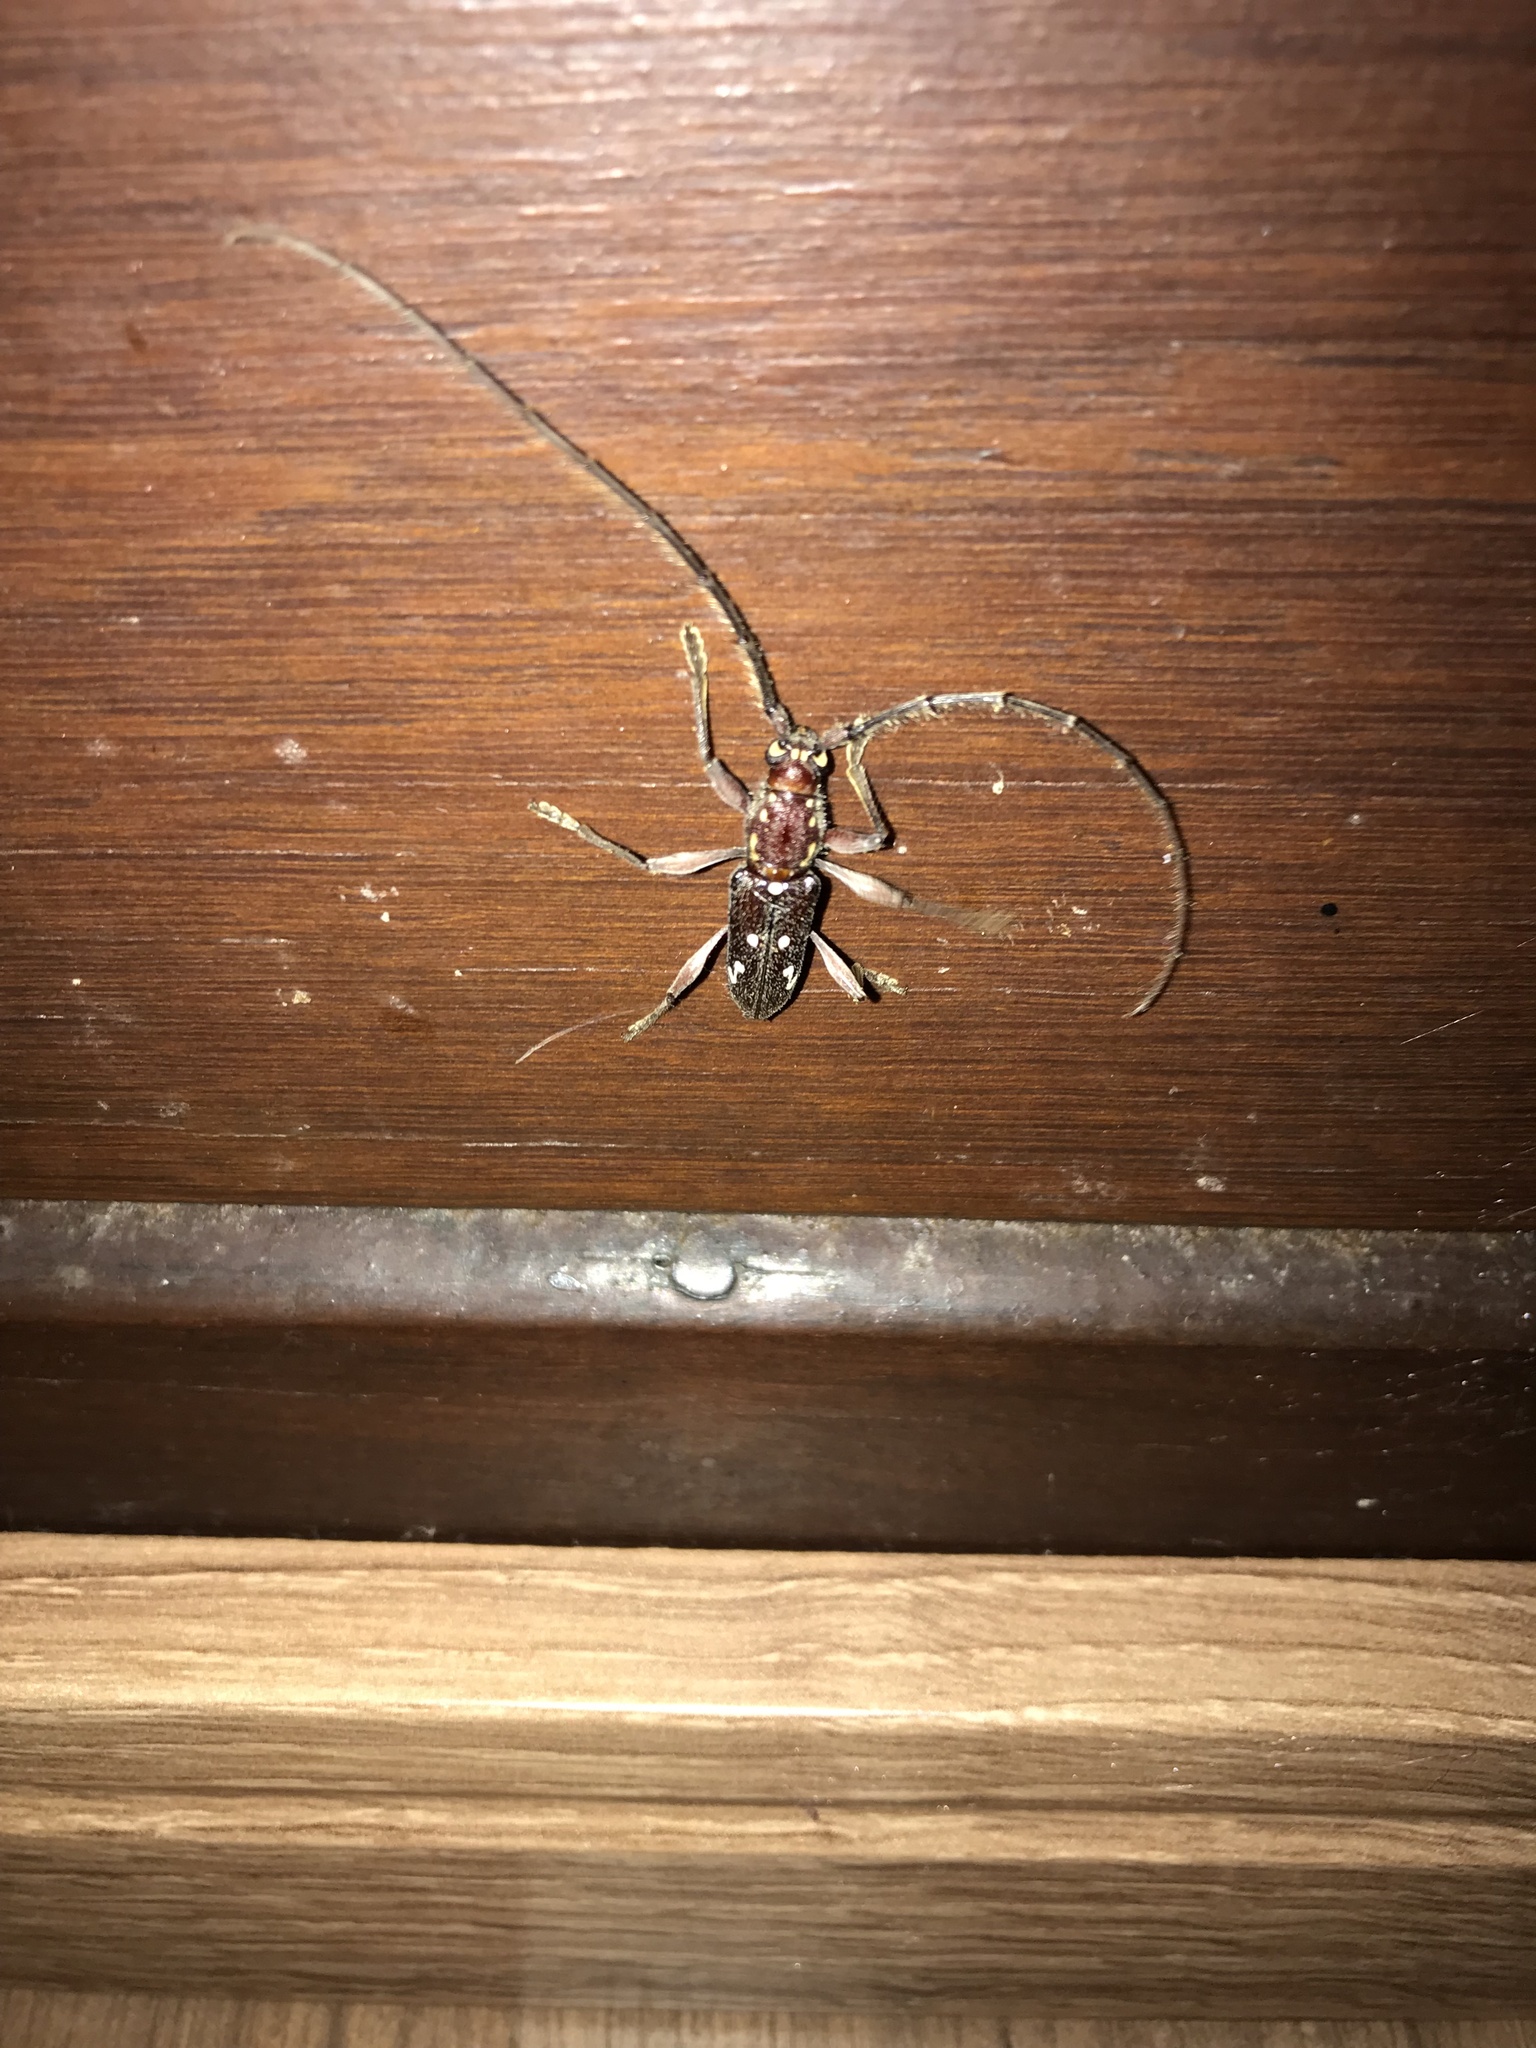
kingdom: Animalia
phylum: Arthropoda
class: Insecta
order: Coleoptera
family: Cerambycidae
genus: Ambonus
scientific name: Ambonus interrogationis
